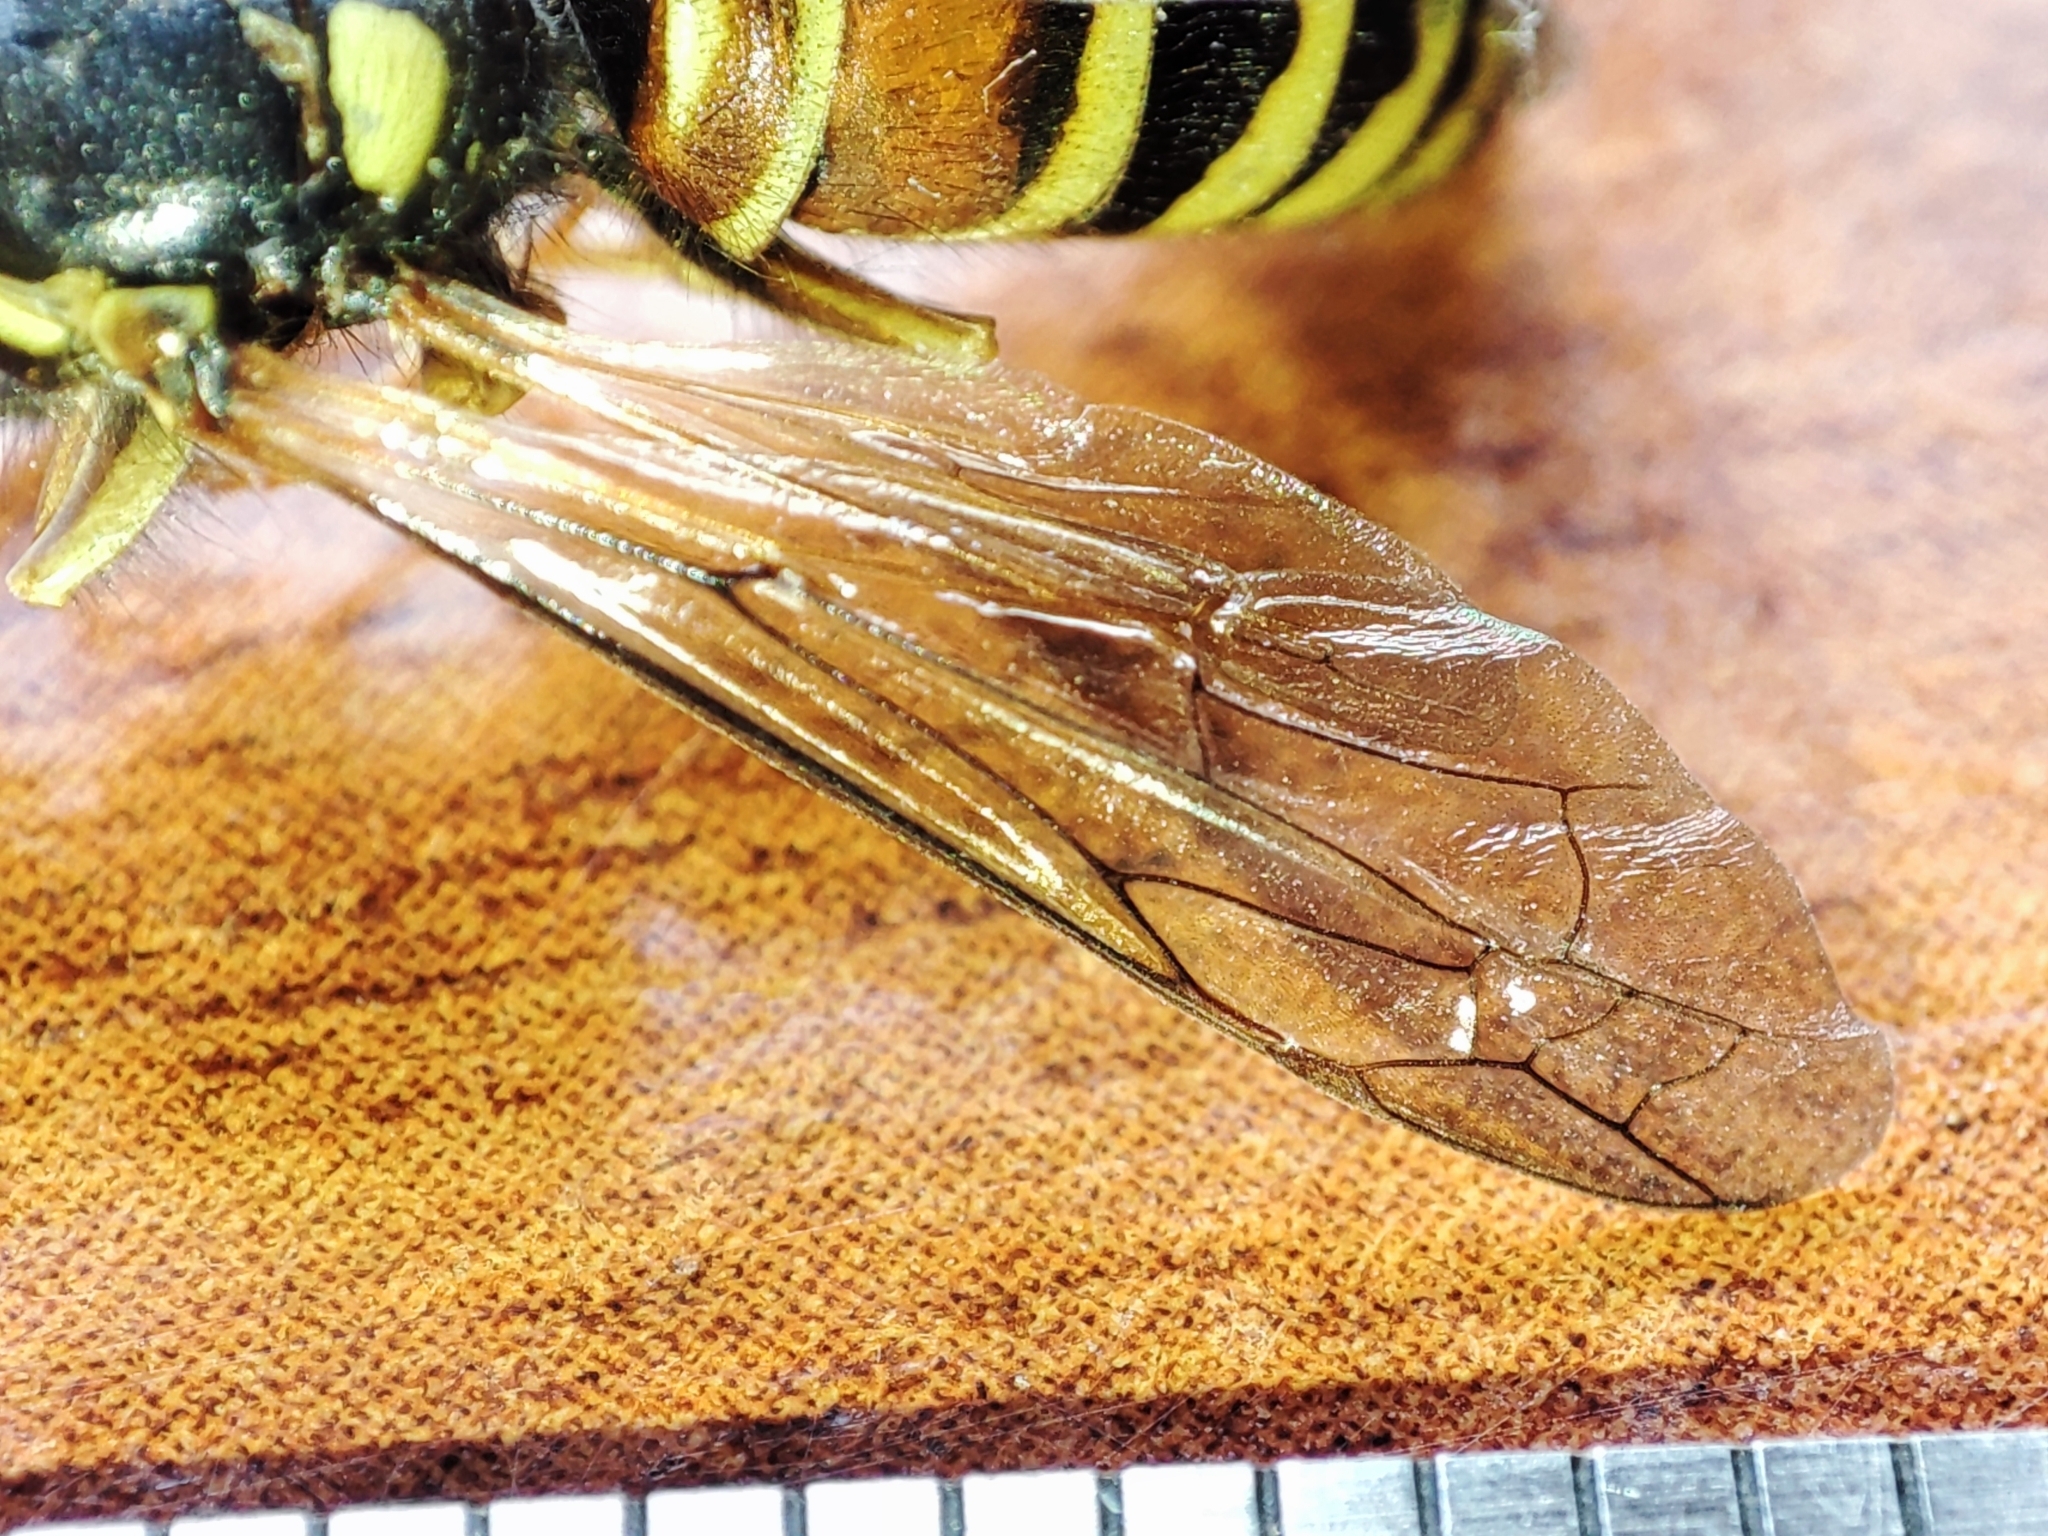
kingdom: Animalia
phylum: Arthropoda
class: Insecta
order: Hymenoptera
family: Vespidae
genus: Vespula
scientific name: Vespula rufa
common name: Red wasp
